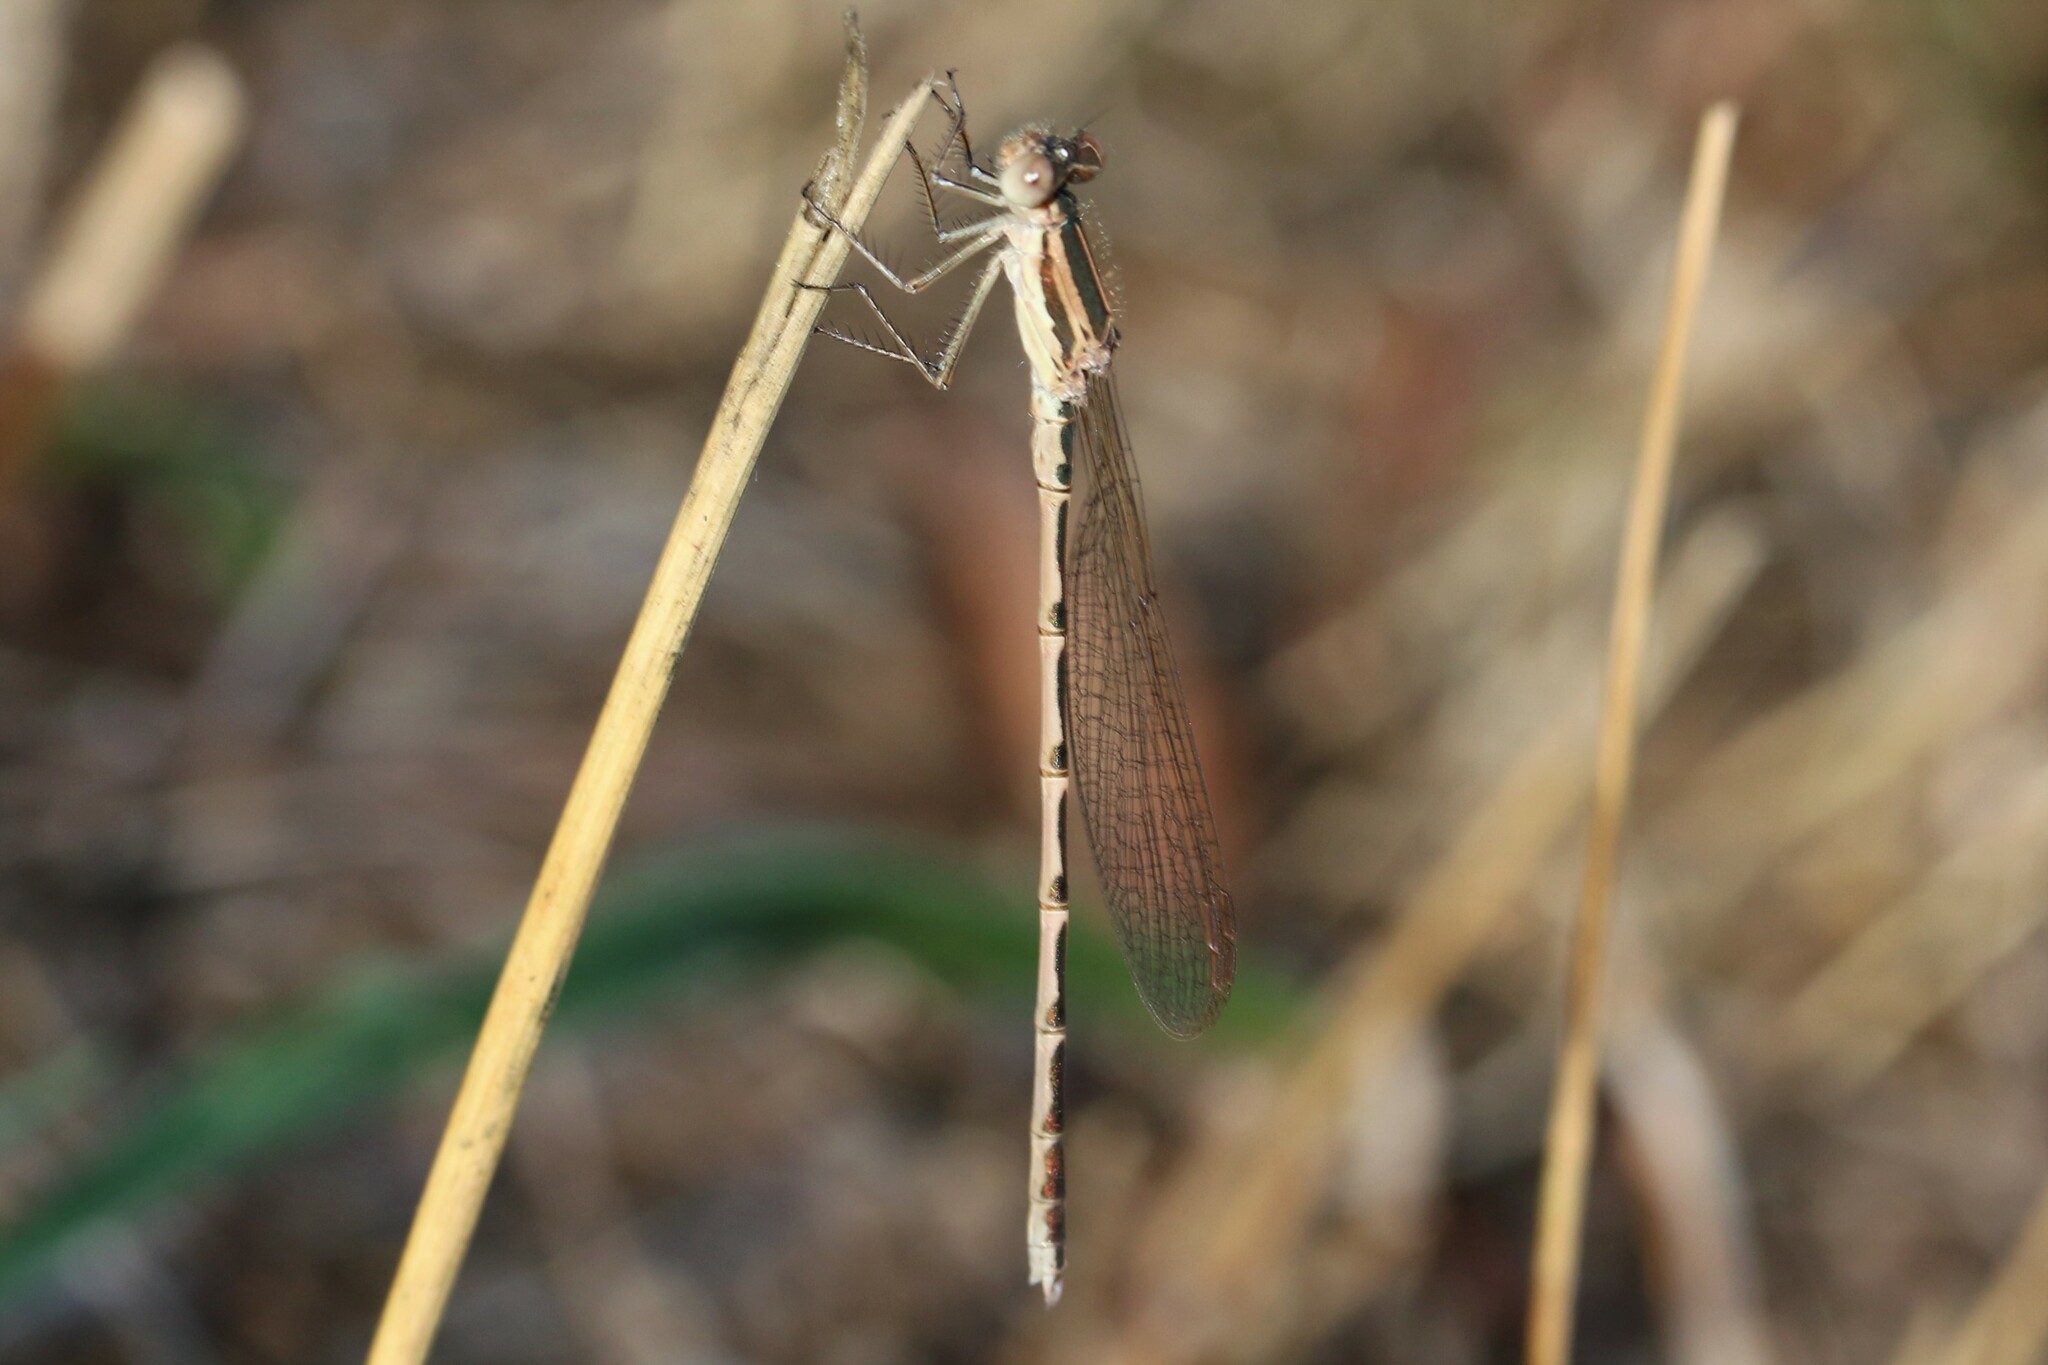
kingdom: Animalia
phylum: Arthropoda
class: Insecta
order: Odonata
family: Lestidae
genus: Sympecma
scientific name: Sympecma fusca
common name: Common winter damsel
